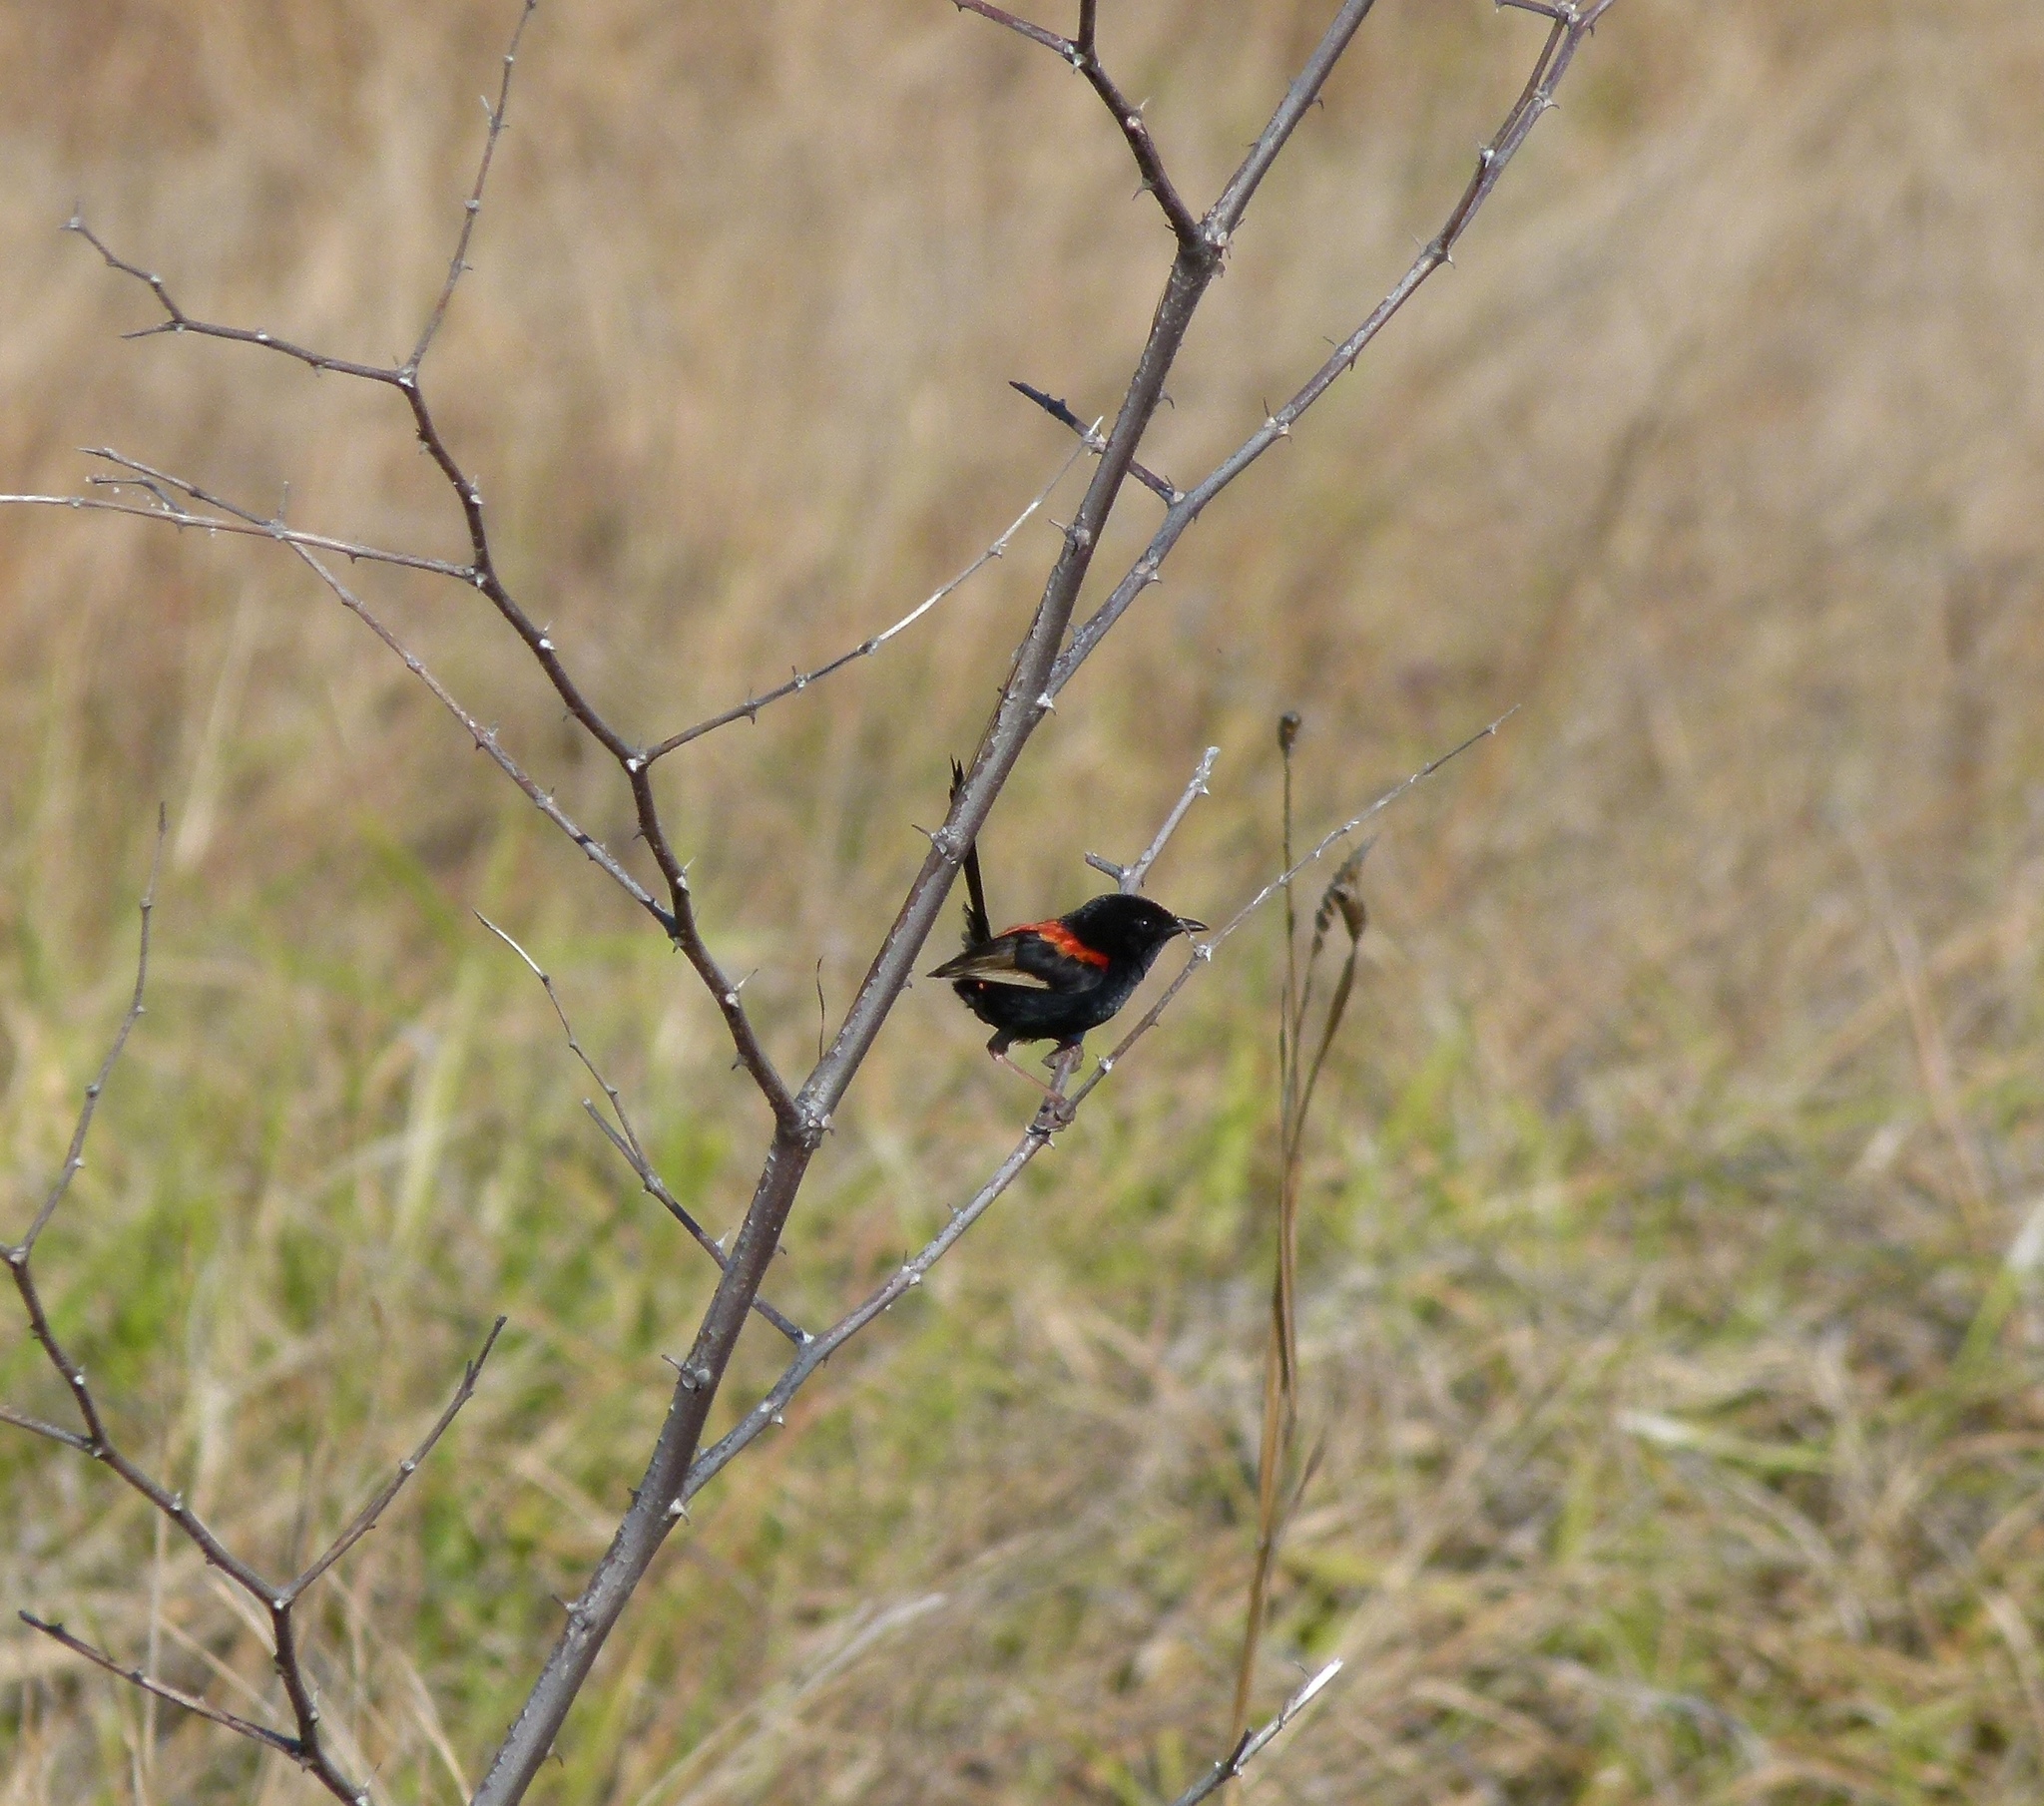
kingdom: Animalia
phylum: Chordata
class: Aves
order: Passeriformes
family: Maluridae
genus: Malurus
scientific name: Malurus melanocephalus
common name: Red-backed fairywren
